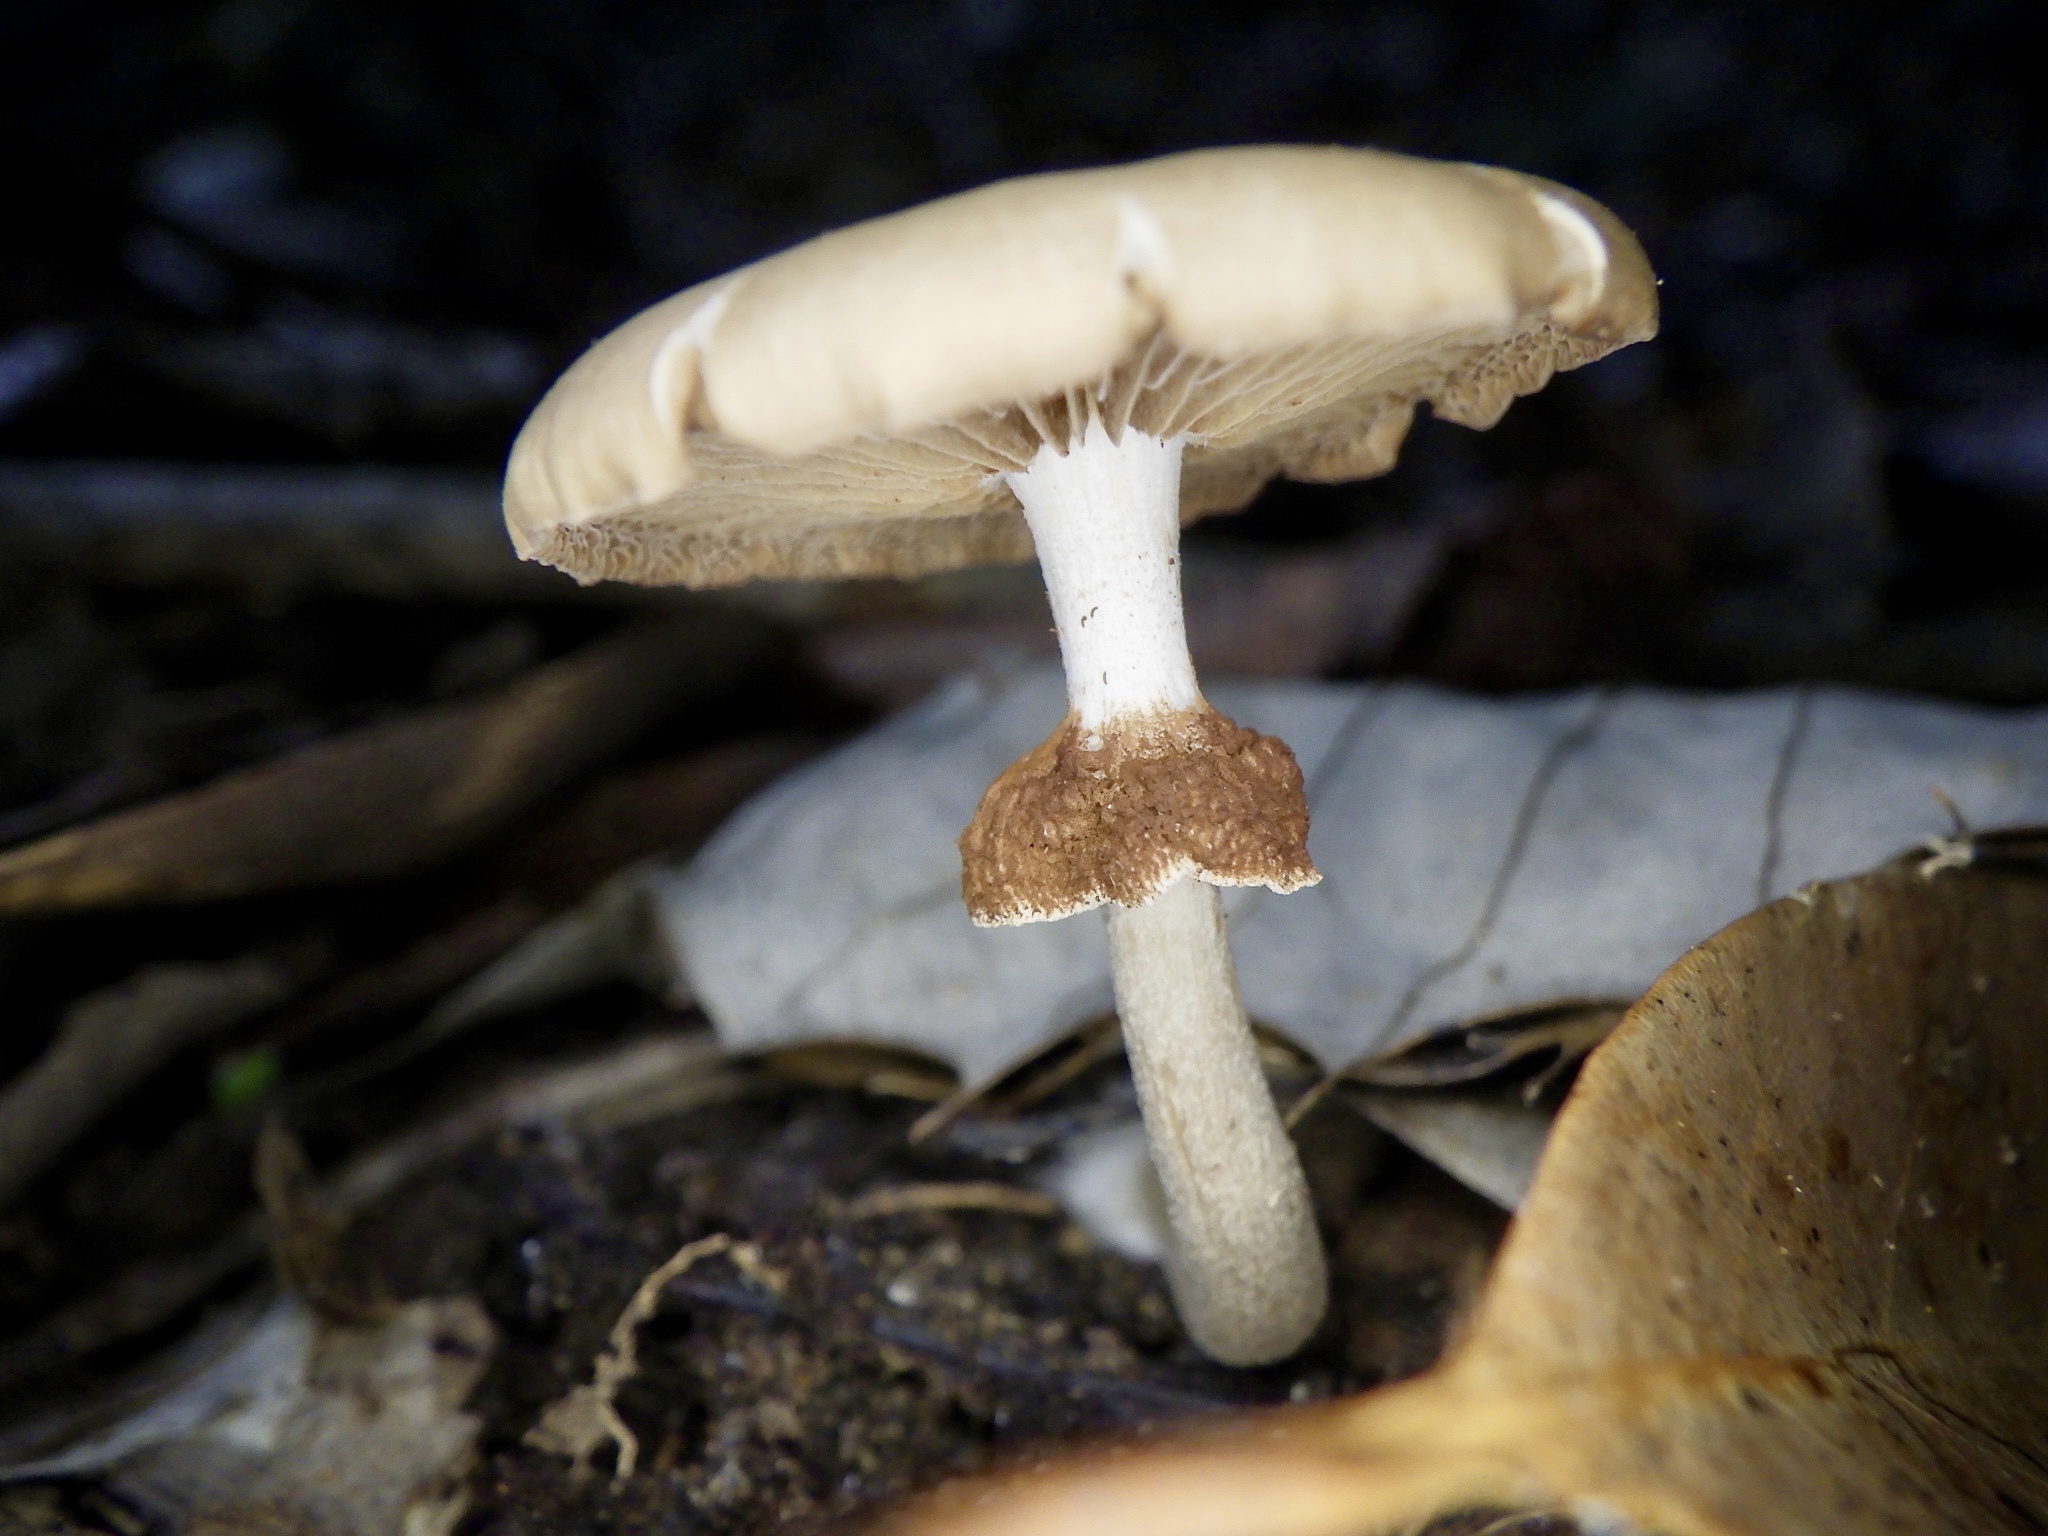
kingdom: Fungi
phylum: Basidiomycota
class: Agaricomycetes
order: Agaricales
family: Tubariaceae
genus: Cyclocybe
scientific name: Cyclocybe erebia
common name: Dark fieldcap
